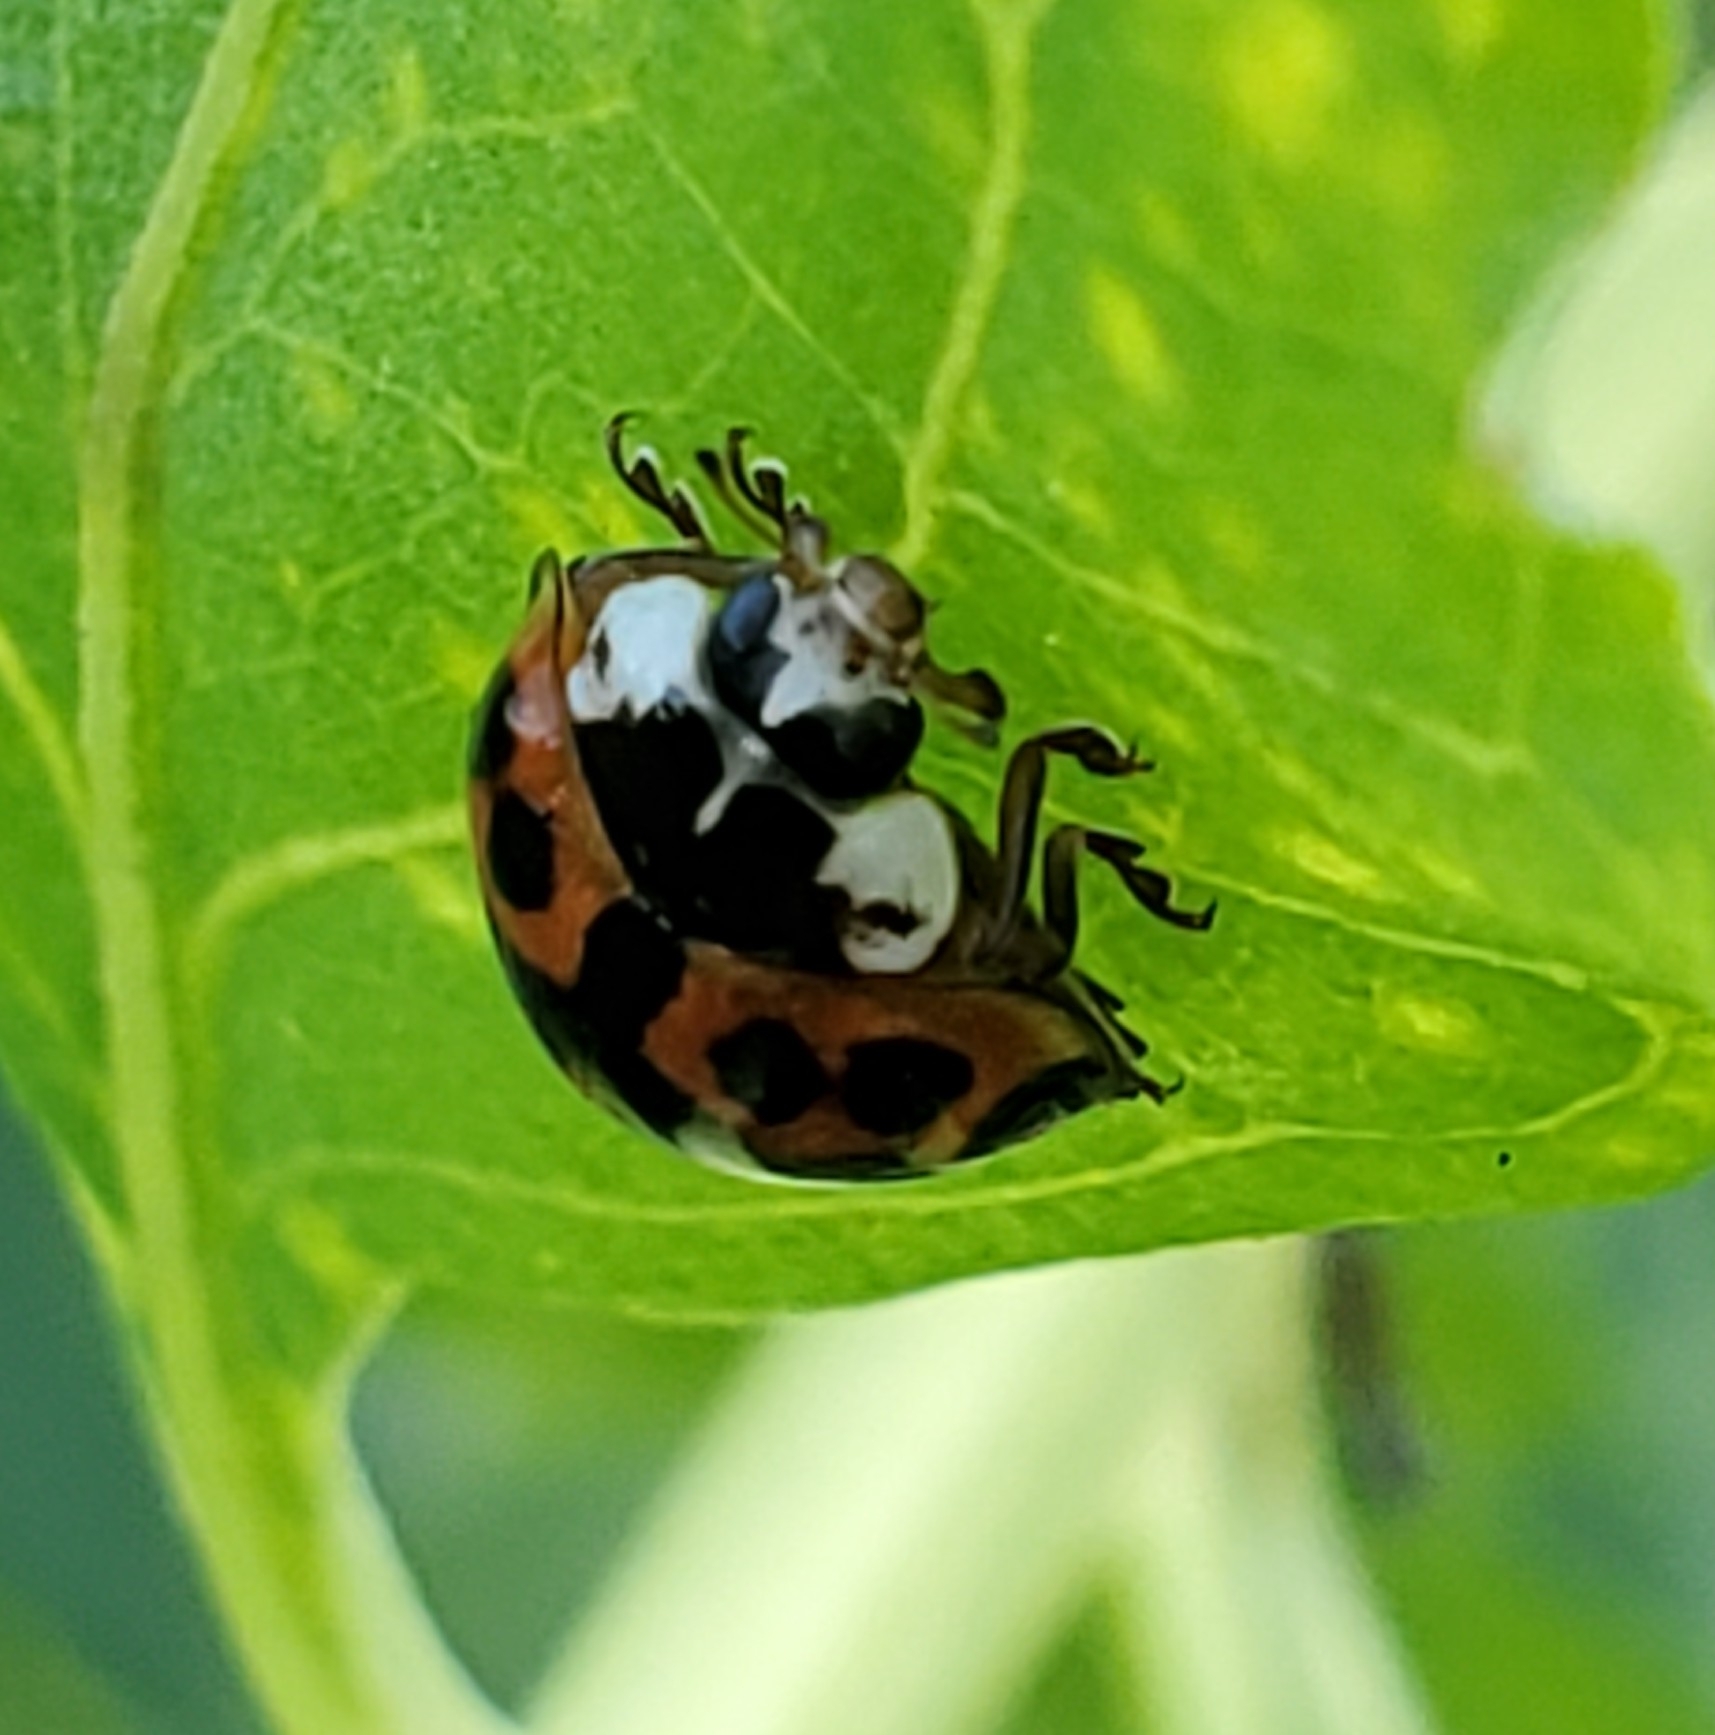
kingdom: Animalia
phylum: Arthropoda
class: Insecta
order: Coleoptera
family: Coccinellidae
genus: Harmonia
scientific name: Harmonia axyridis
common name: Harlequin ladybird
